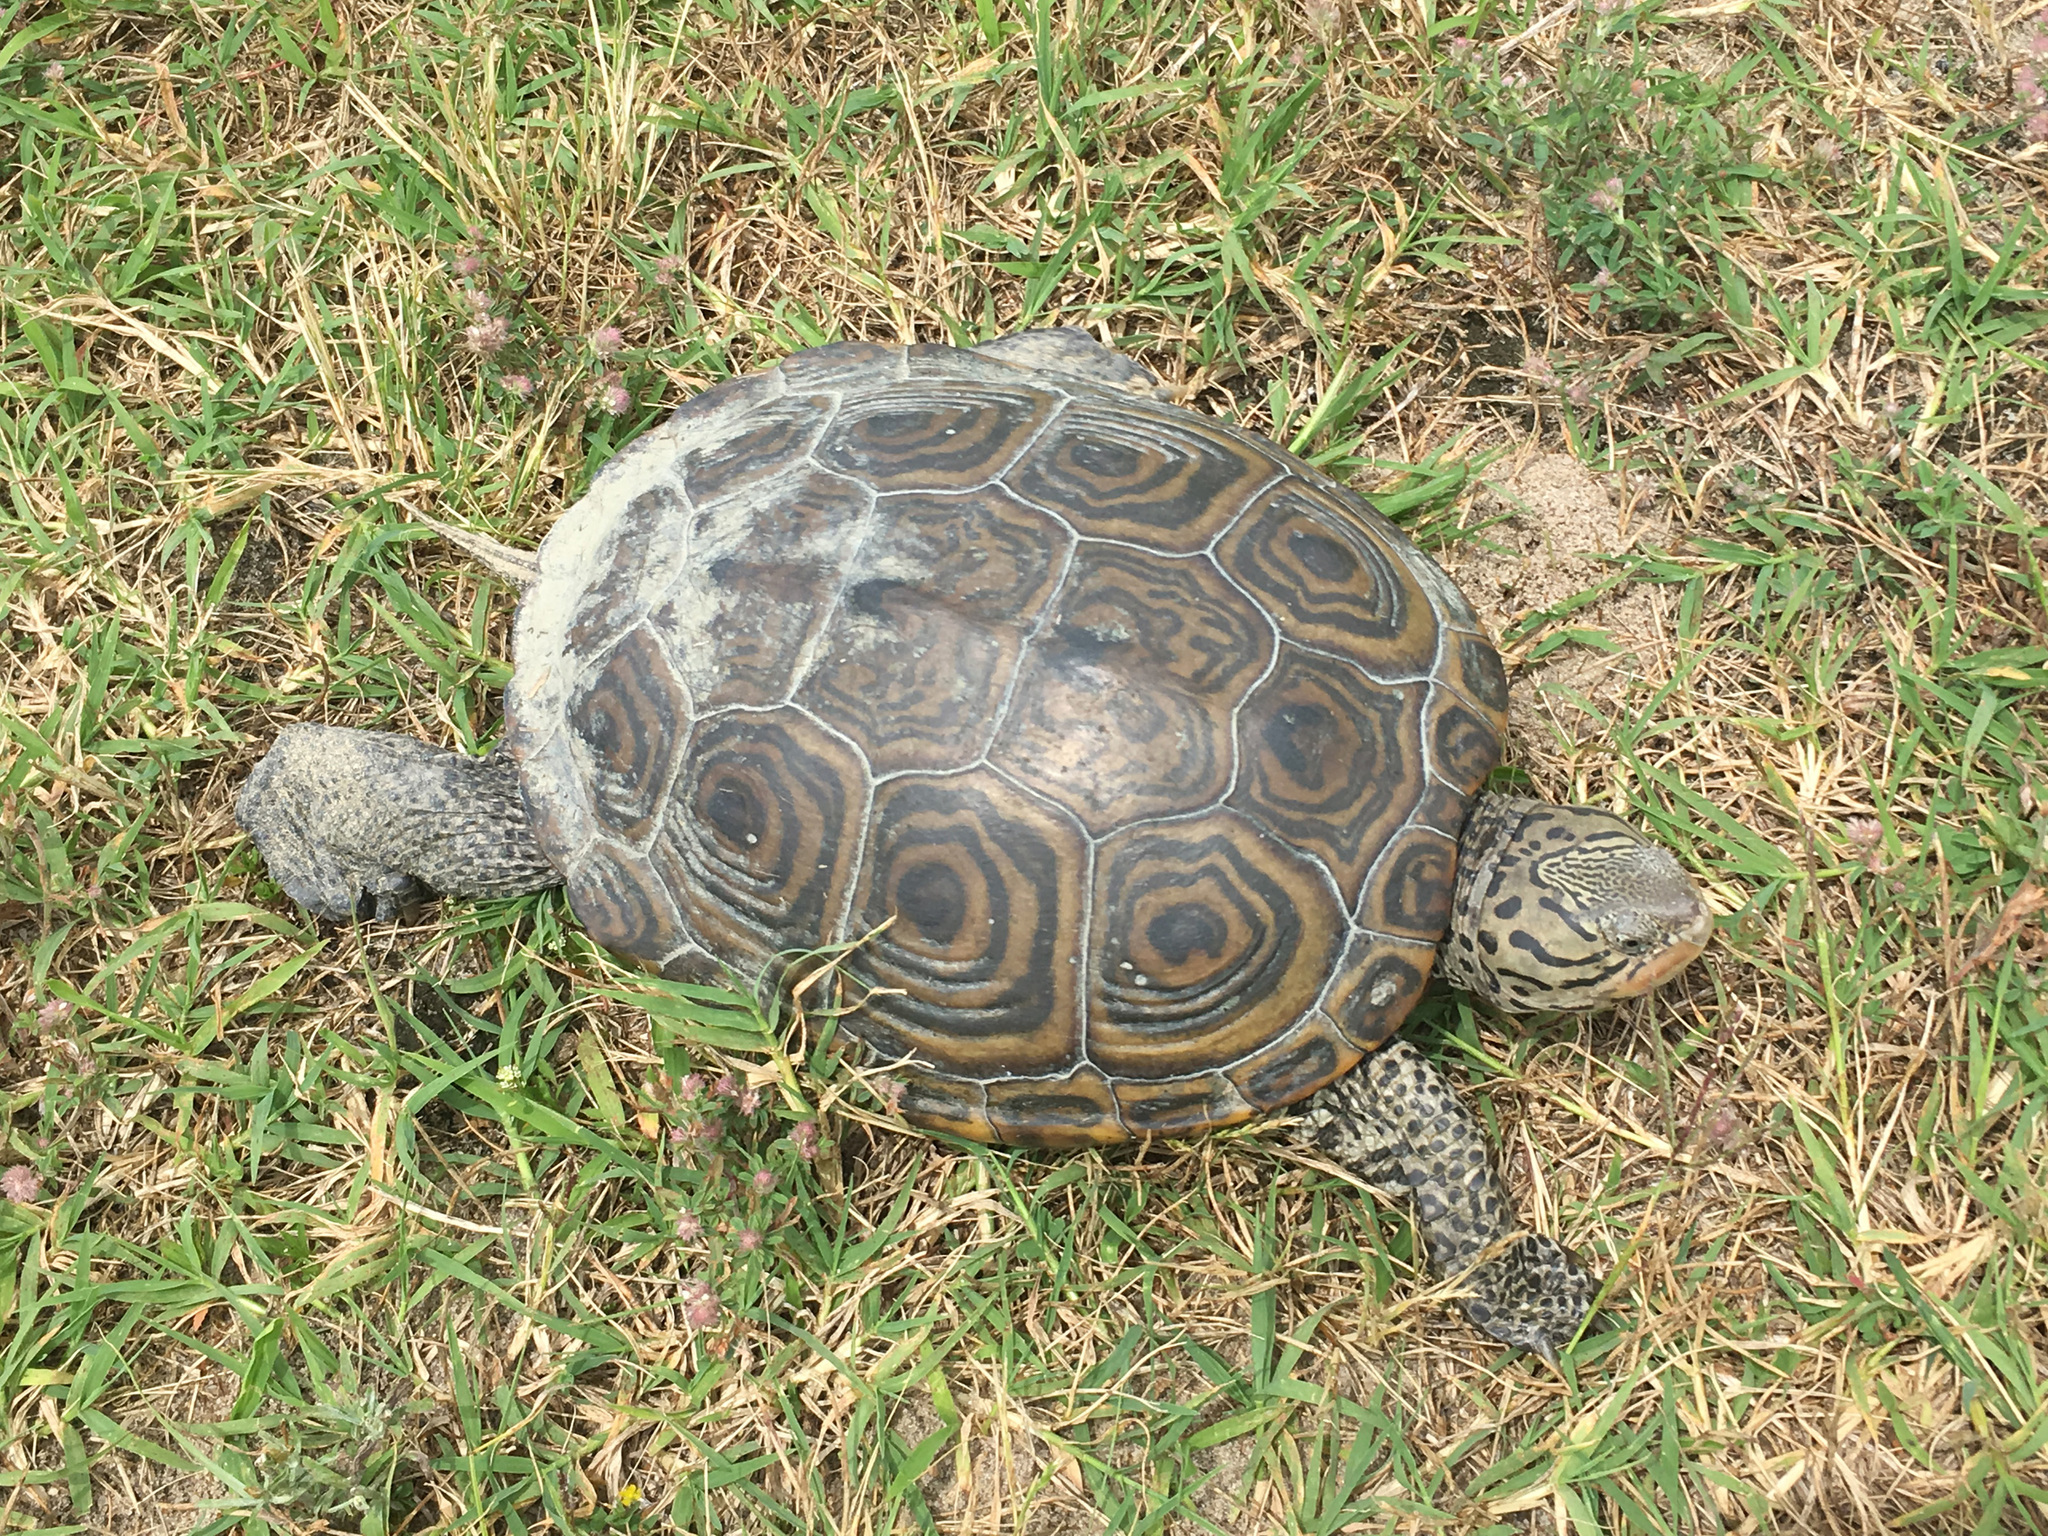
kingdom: Animalia
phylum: Chordata
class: Testudines
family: Emydidae
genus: Malaclemys
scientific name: Malaclemys terrapin
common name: Diamondback terrapin
